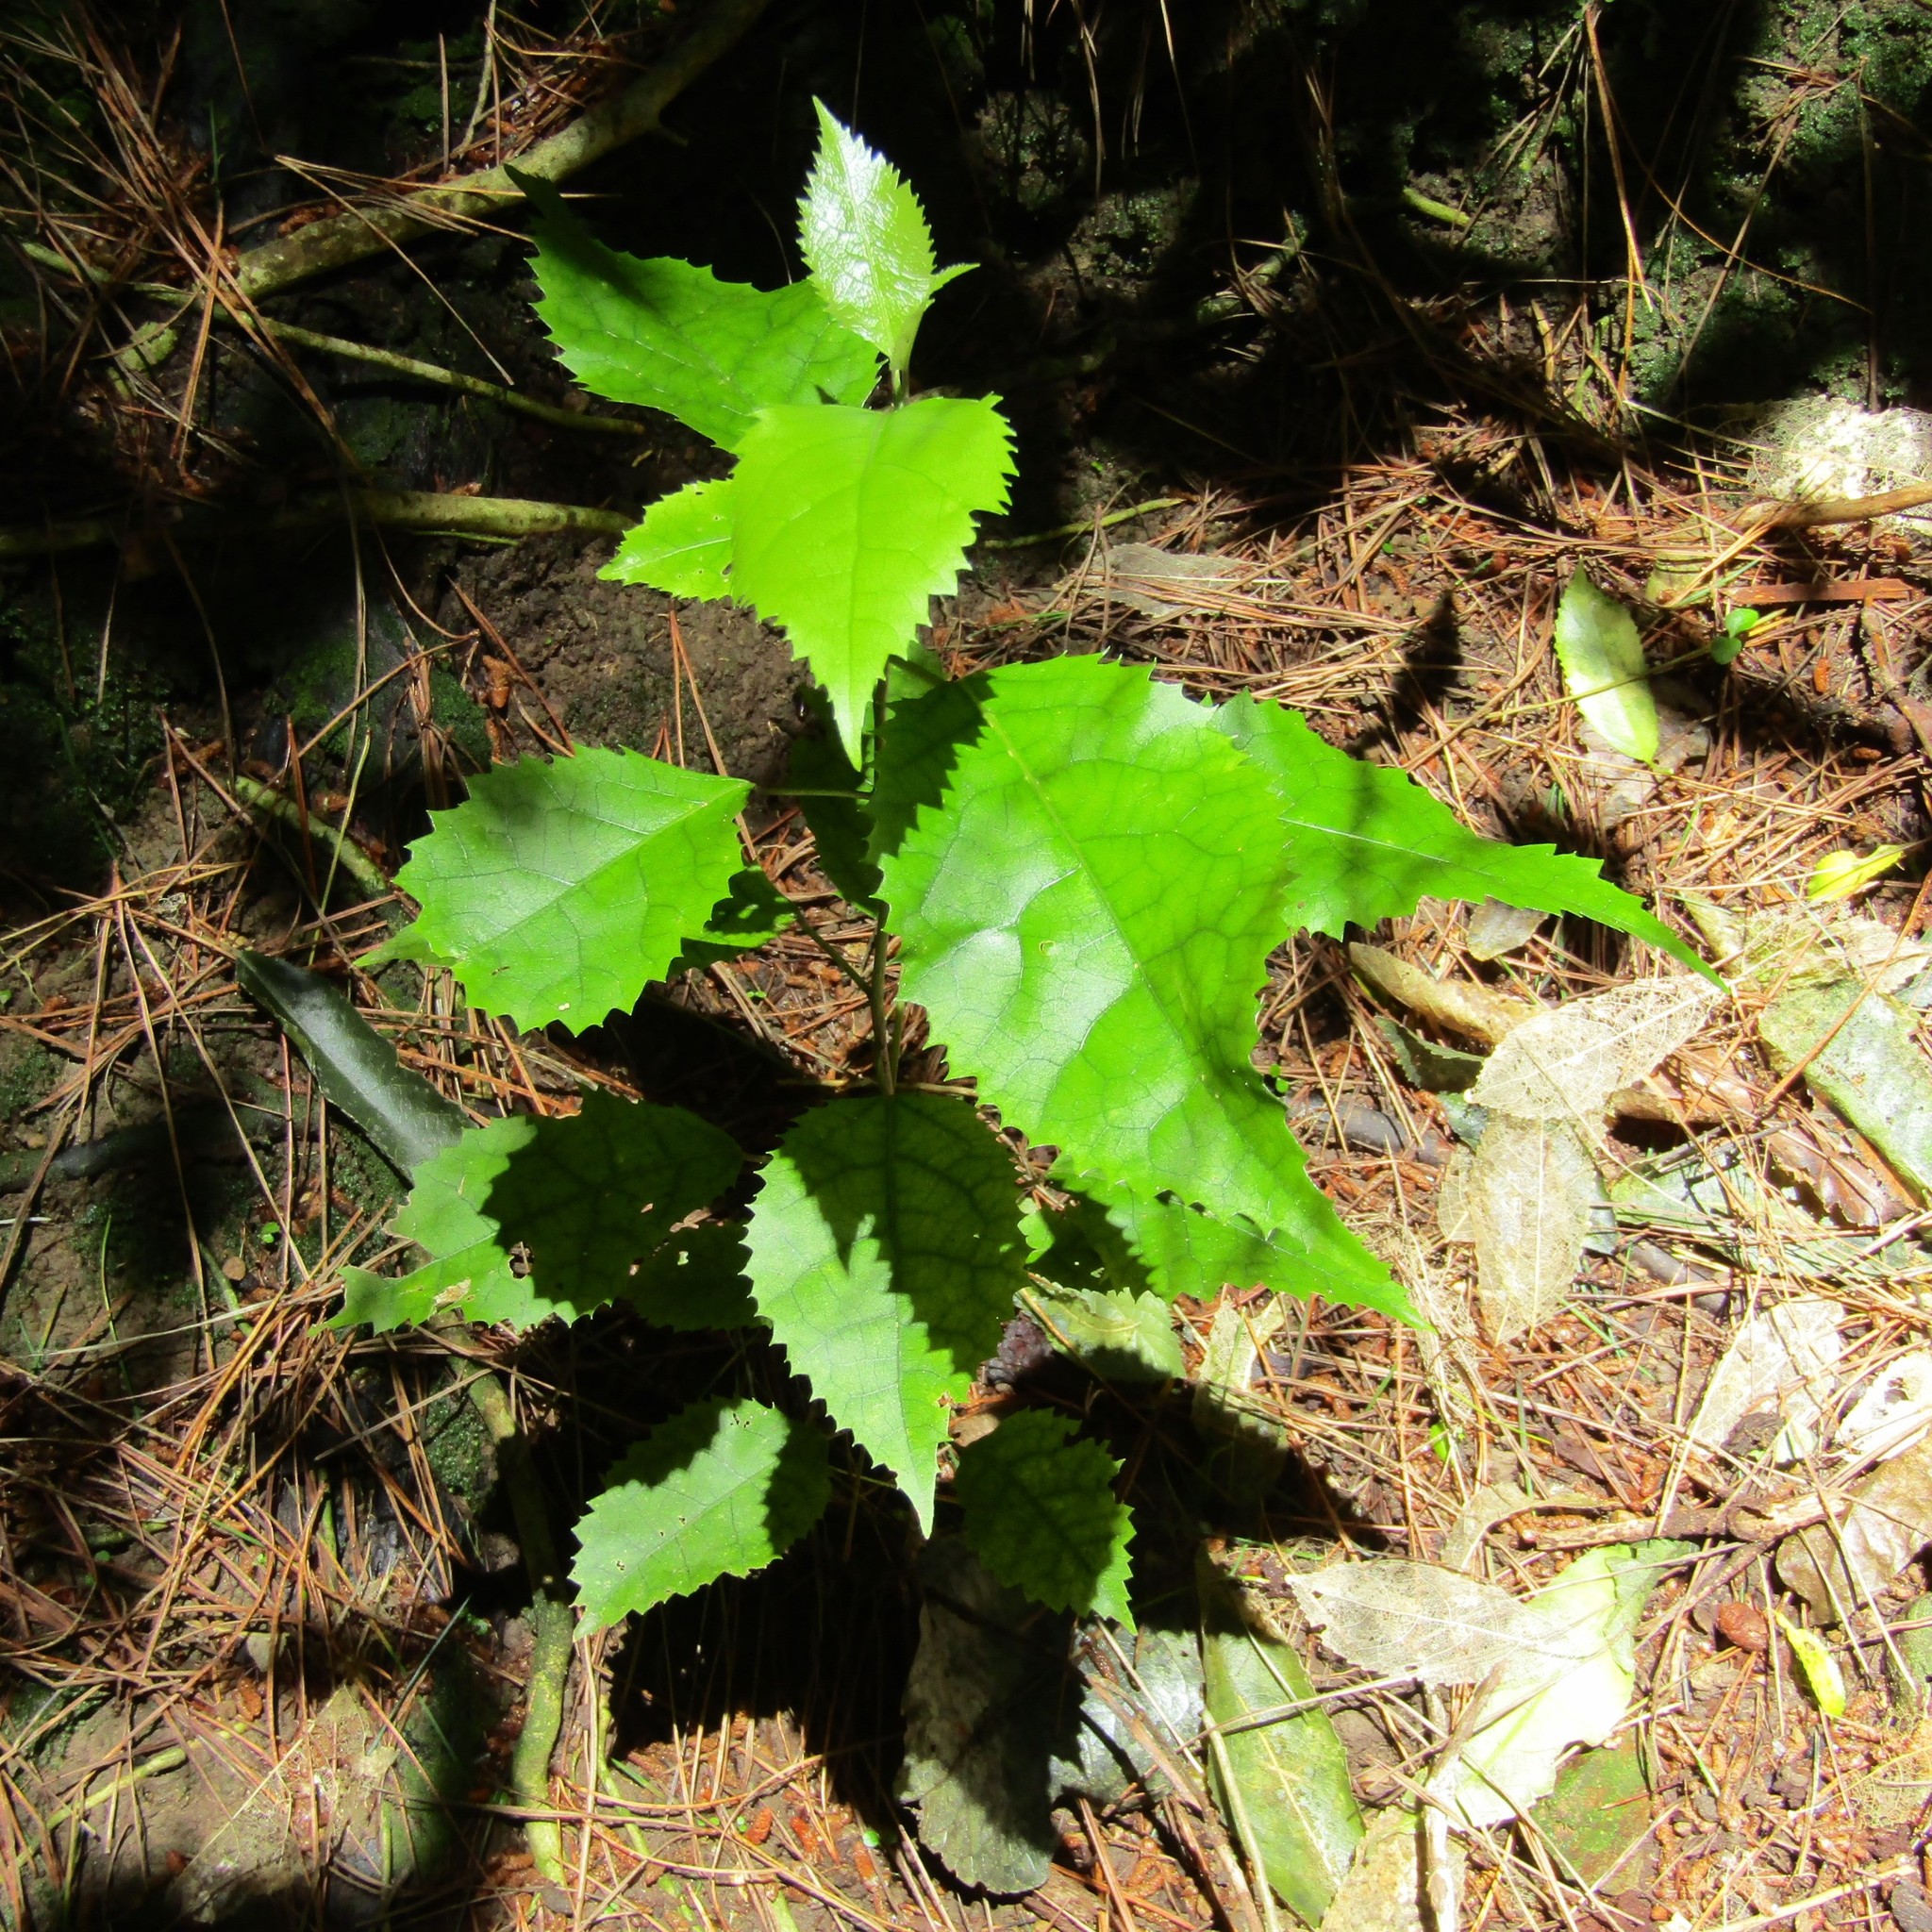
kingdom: Plantae
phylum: Tracheophyta
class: Magnoliopsida
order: Malvales
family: Malvaceae
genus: Hoheria
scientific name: Hoheria populnea
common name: Lacebark
